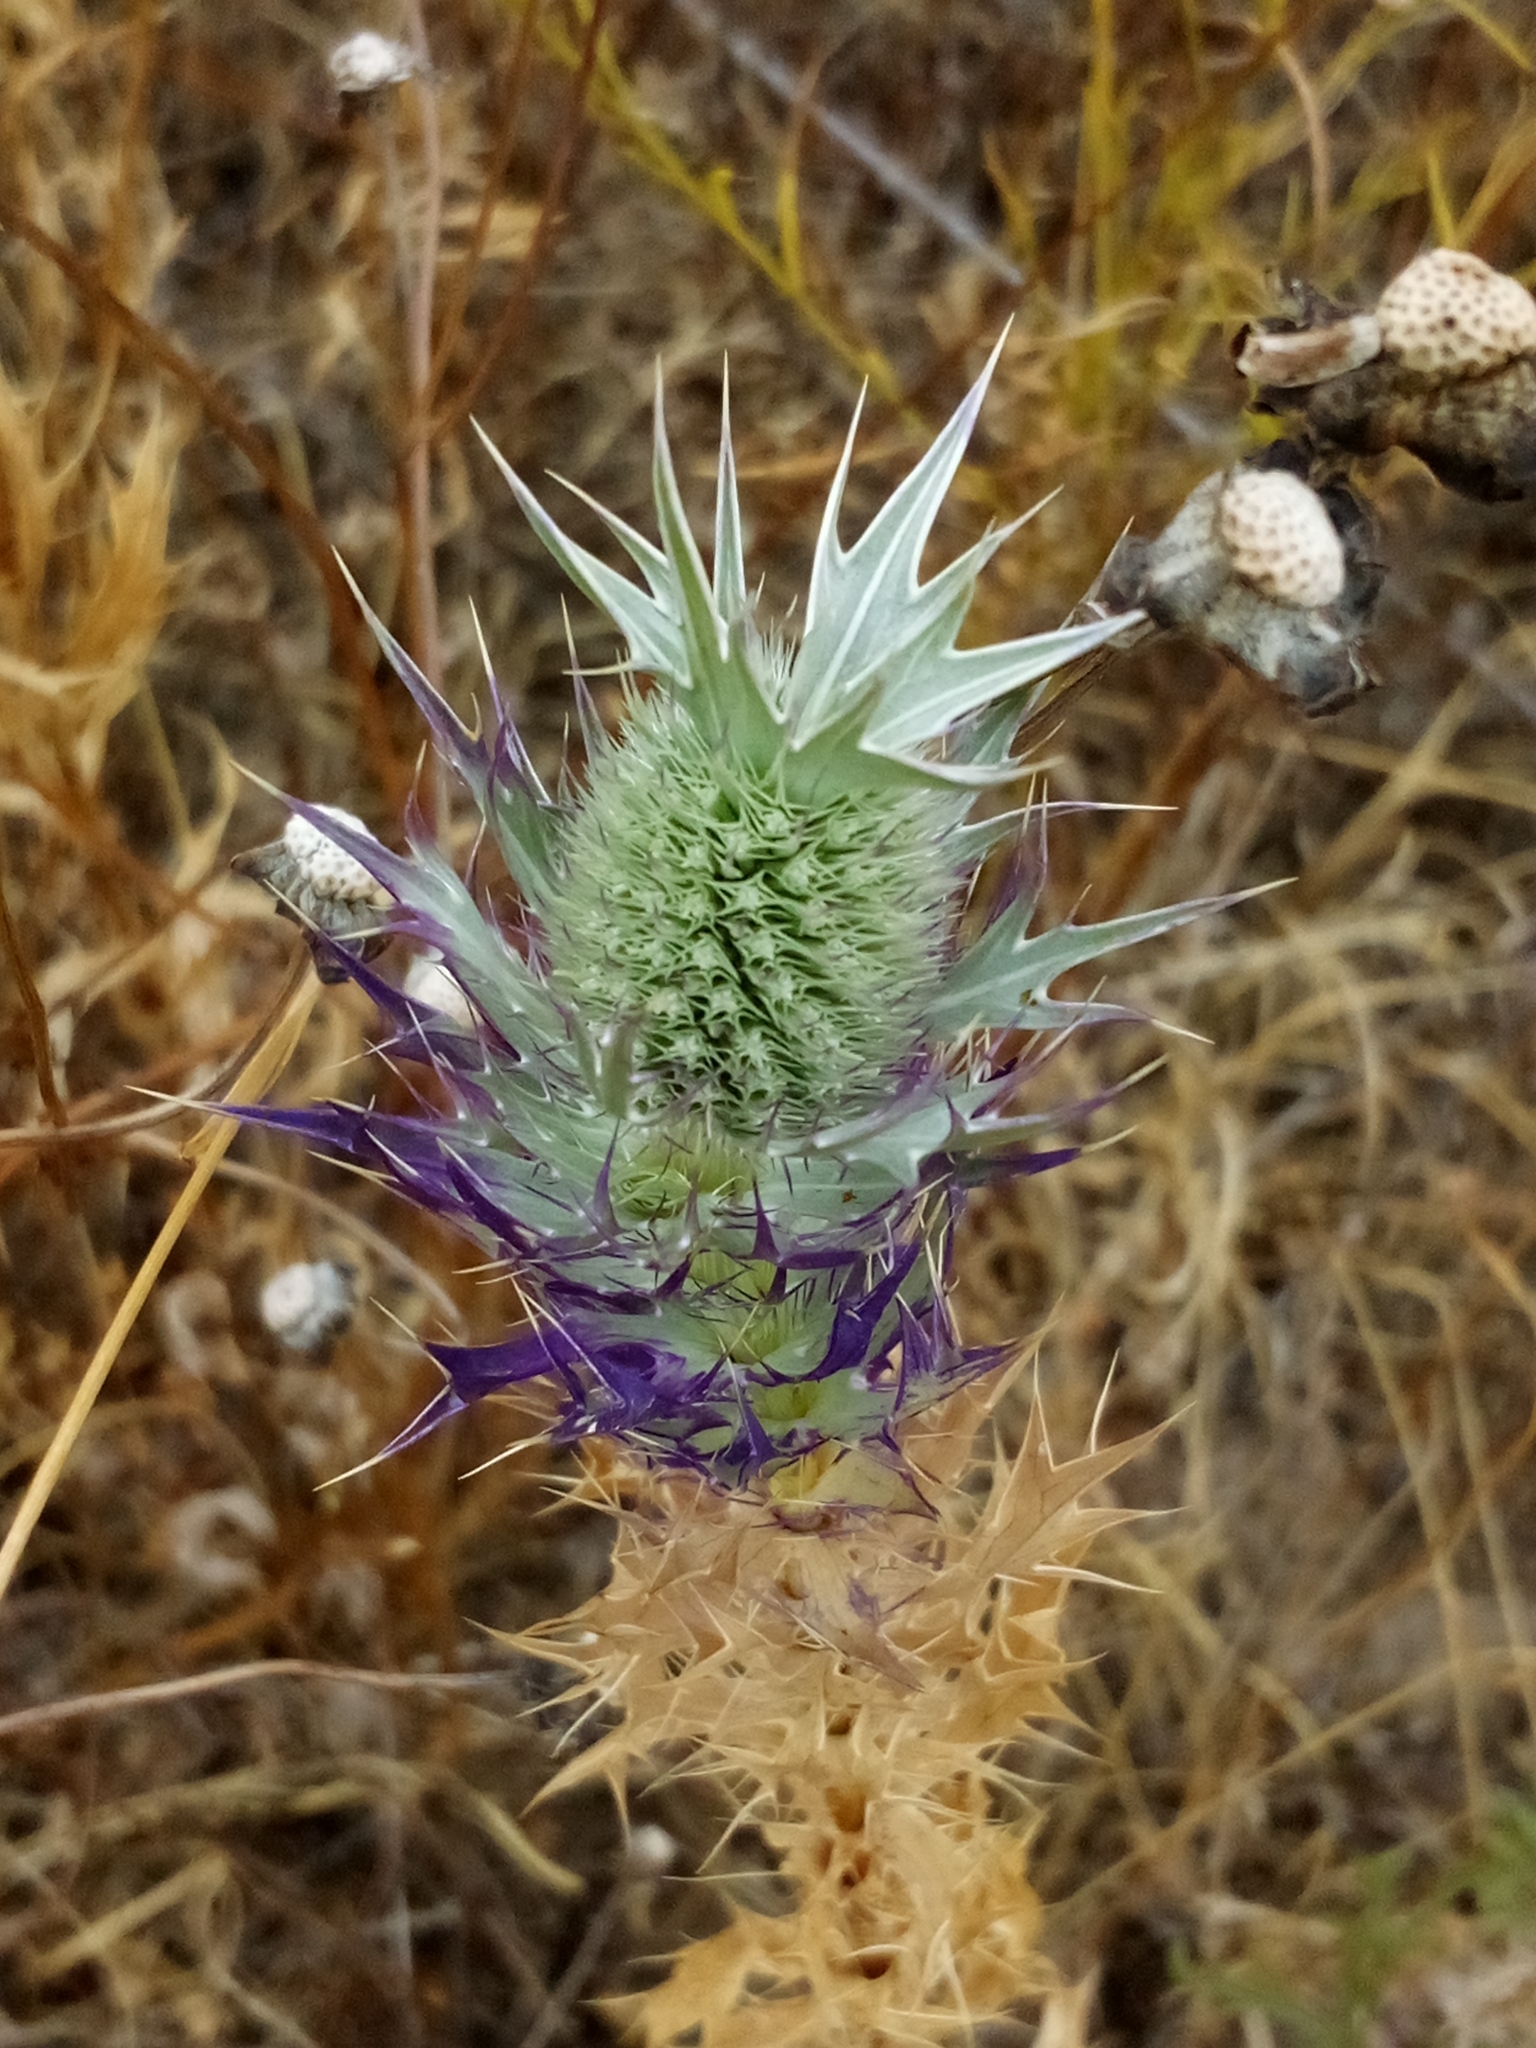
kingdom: Plantae
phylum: Tracheophyta
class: Magnoliopsida
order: Apiales
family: Apiaceae
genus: Eryngium
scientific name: Eryngium leavenworthii
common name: Leavenworth's eryngo
